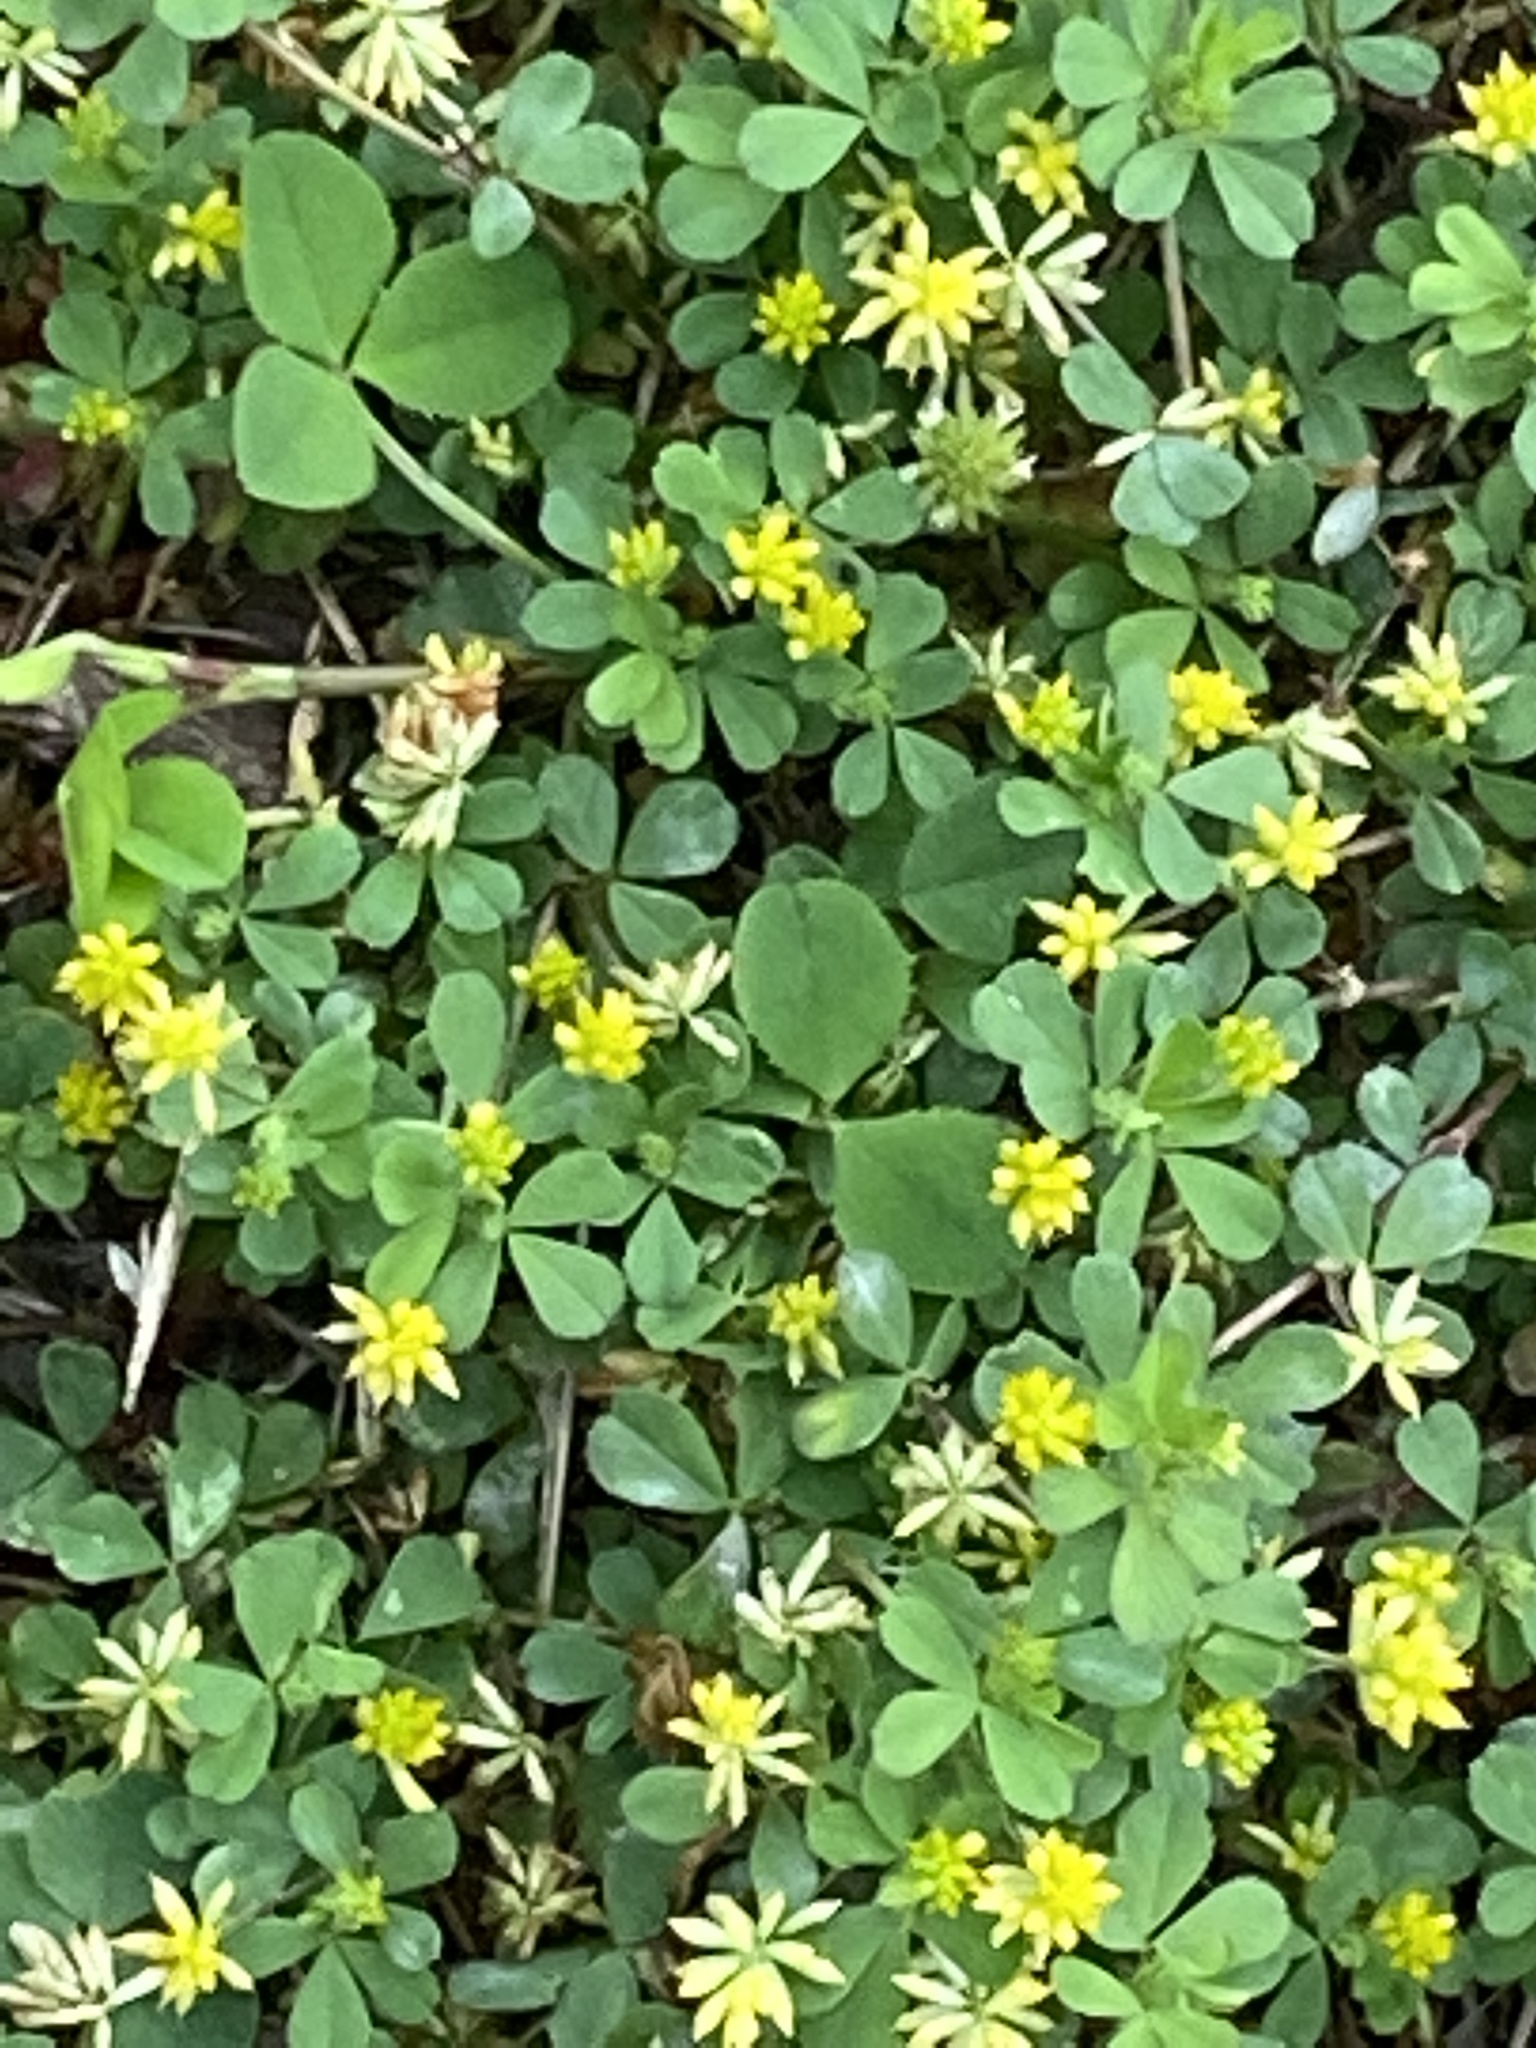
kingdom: Plantae
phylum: Tracheophyta
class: Magnoliopsida
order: Fabales
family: Fabaceae
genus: Trifolium
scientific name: Trifolium dubium
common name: Suckling clover
